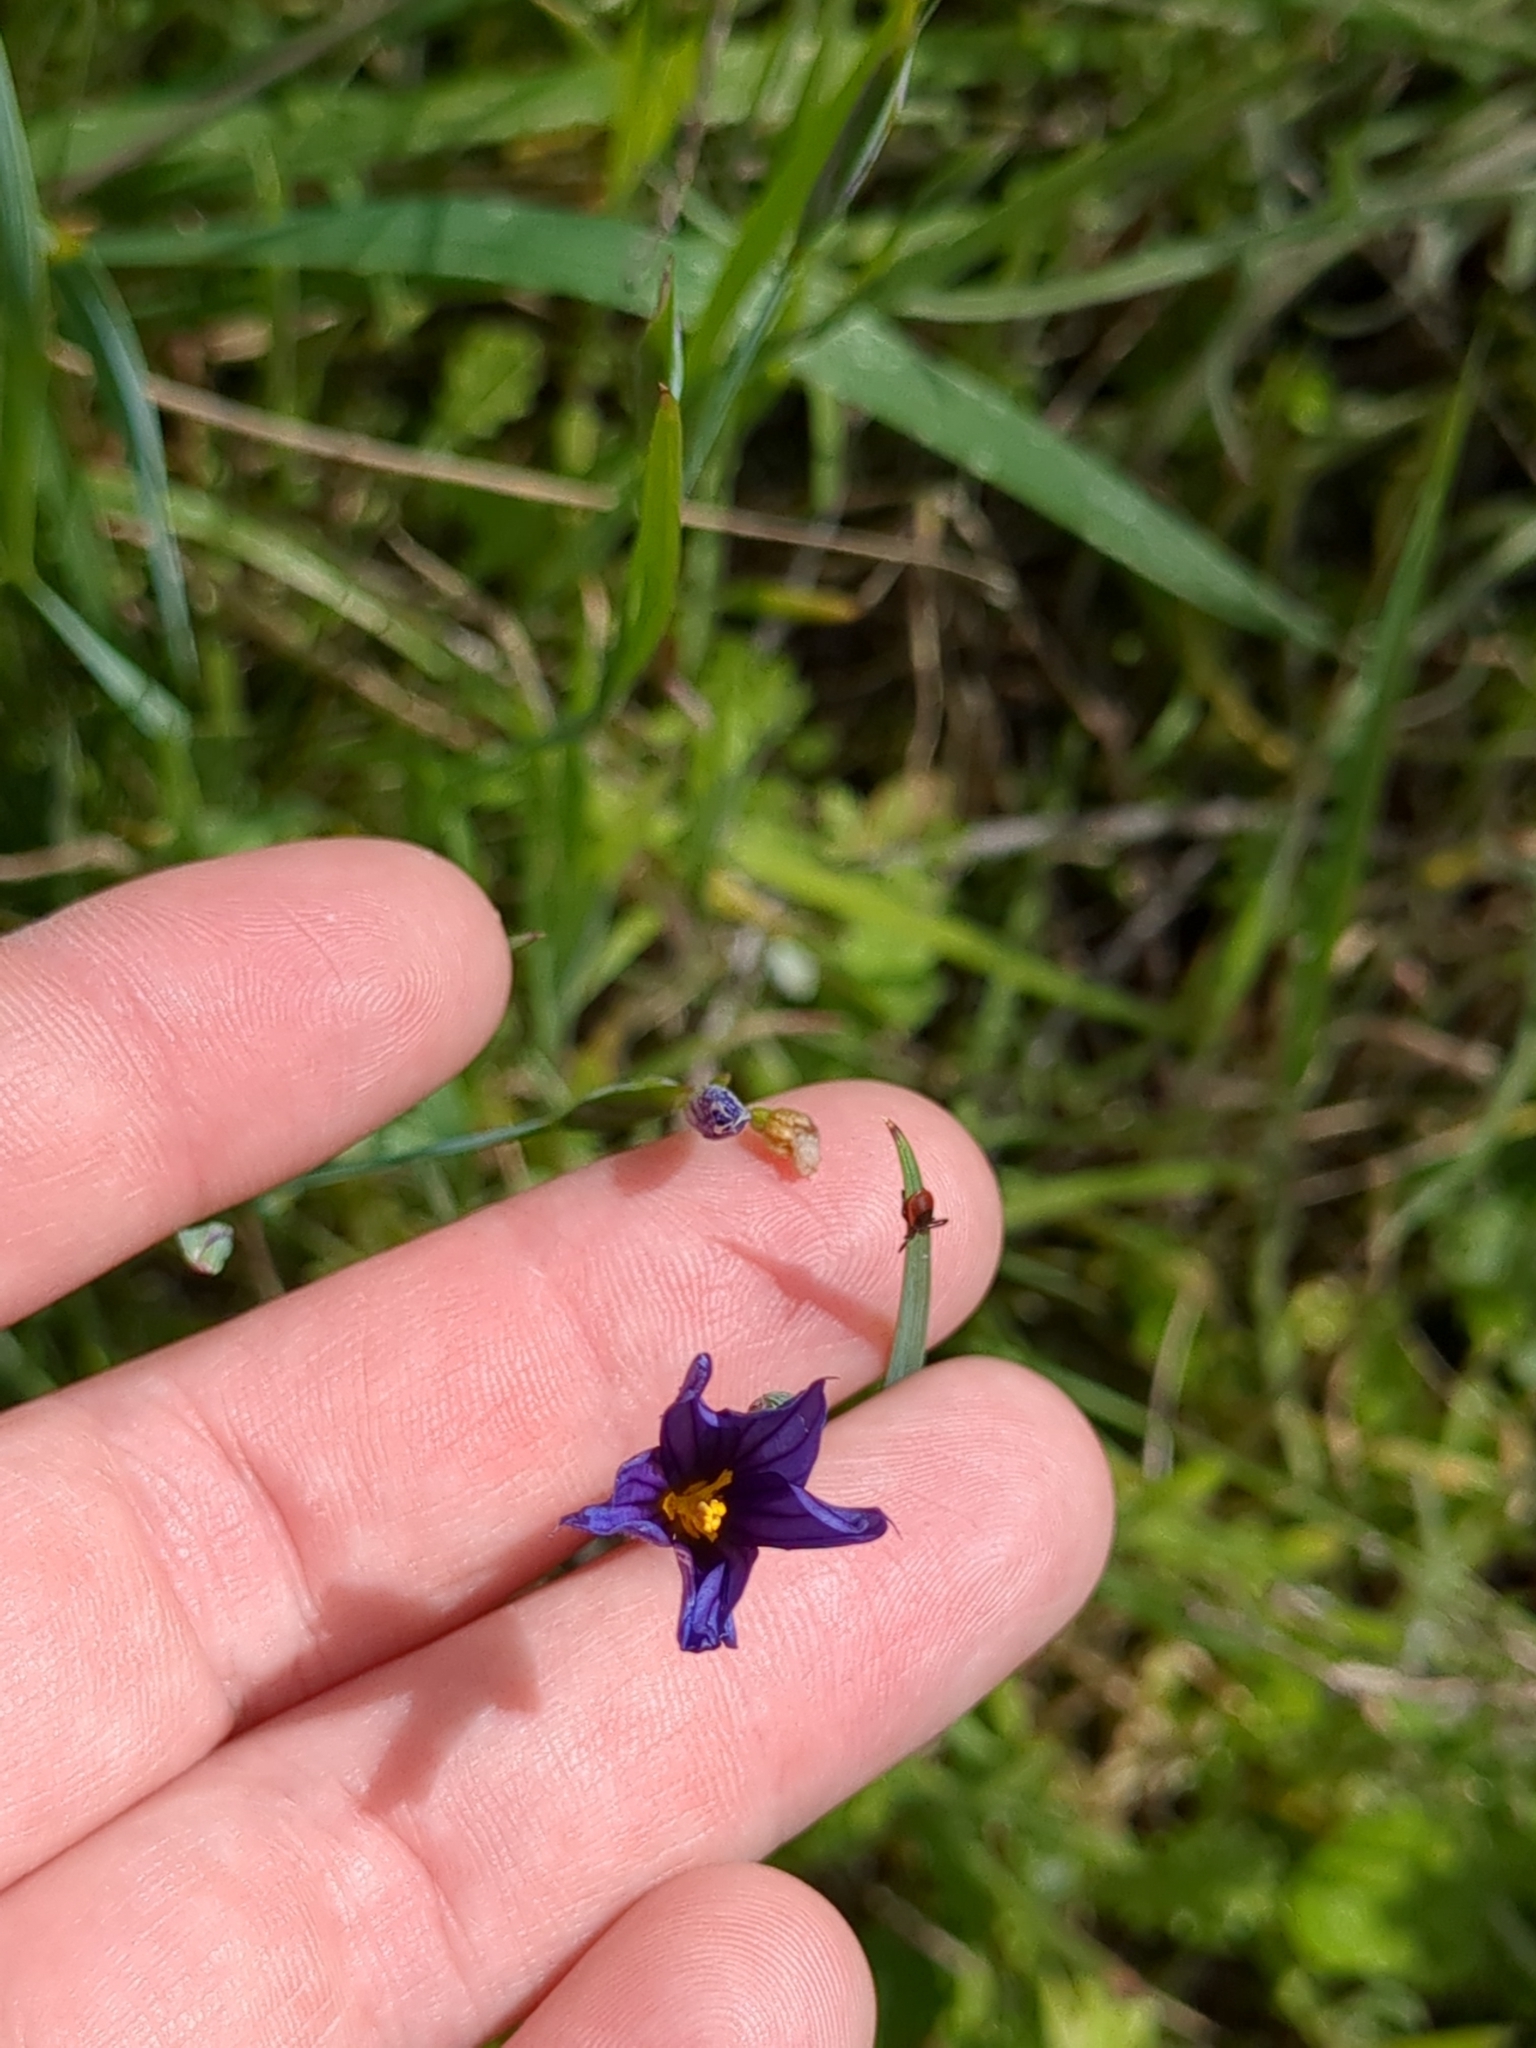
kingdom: Plantae
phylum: Tracheophyta
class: Liliopsida
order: Asparagales
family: Iridaceae
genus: Sisyrinchium
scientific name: Sisyrinchium bellum
